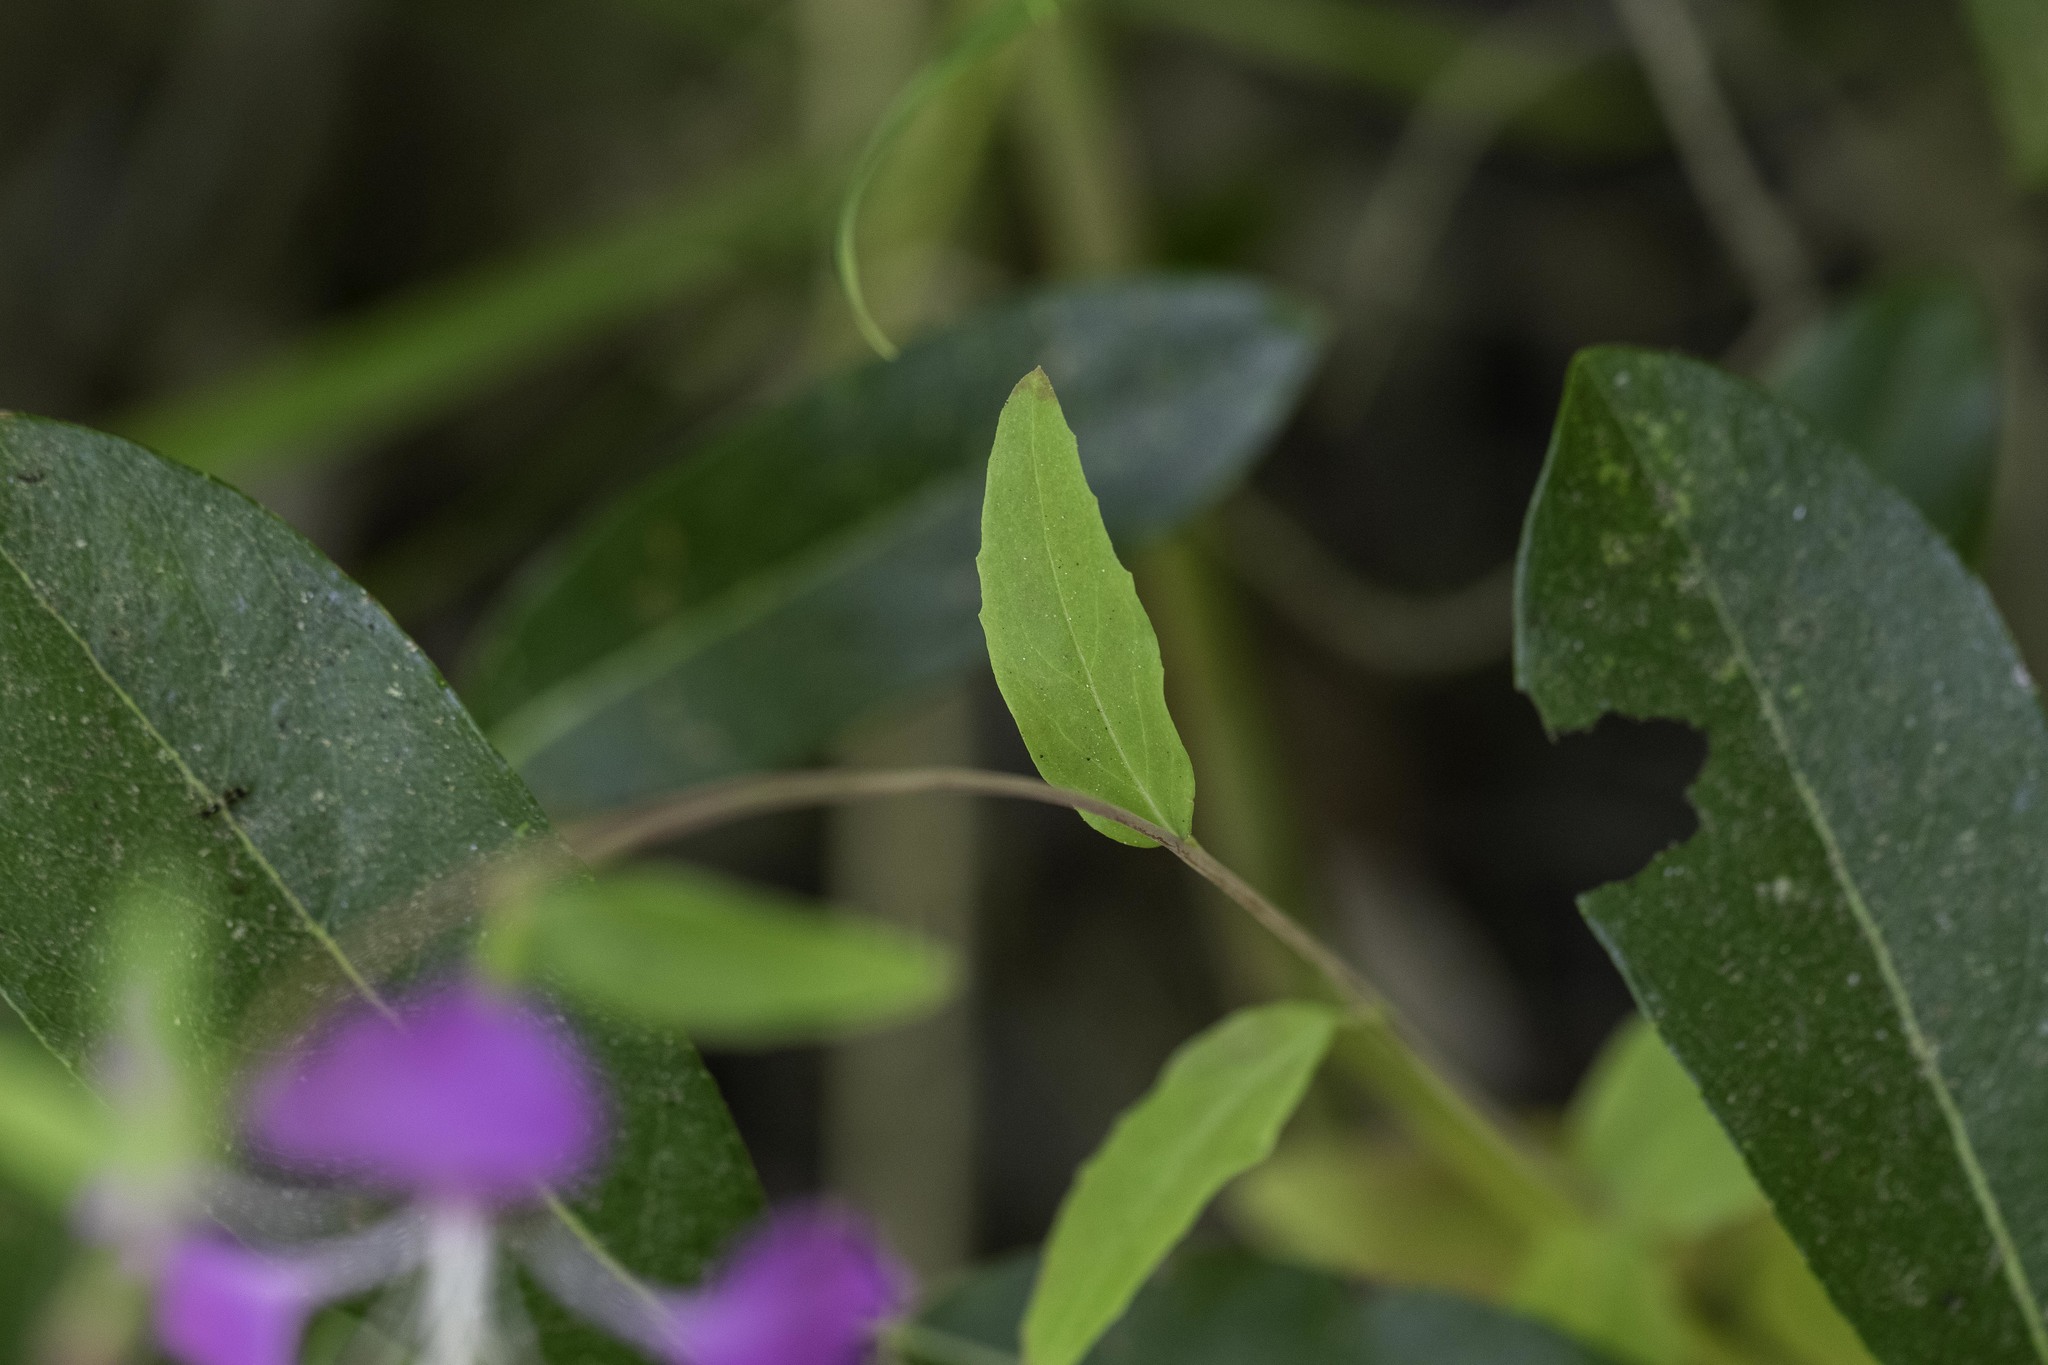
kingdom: Plantae
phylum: Tracheophyta
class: Magnoliopsida
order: Myrtales
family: Onagraceae
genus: Clarkia
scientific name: Clarkia unguiculata
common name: Clarkia
